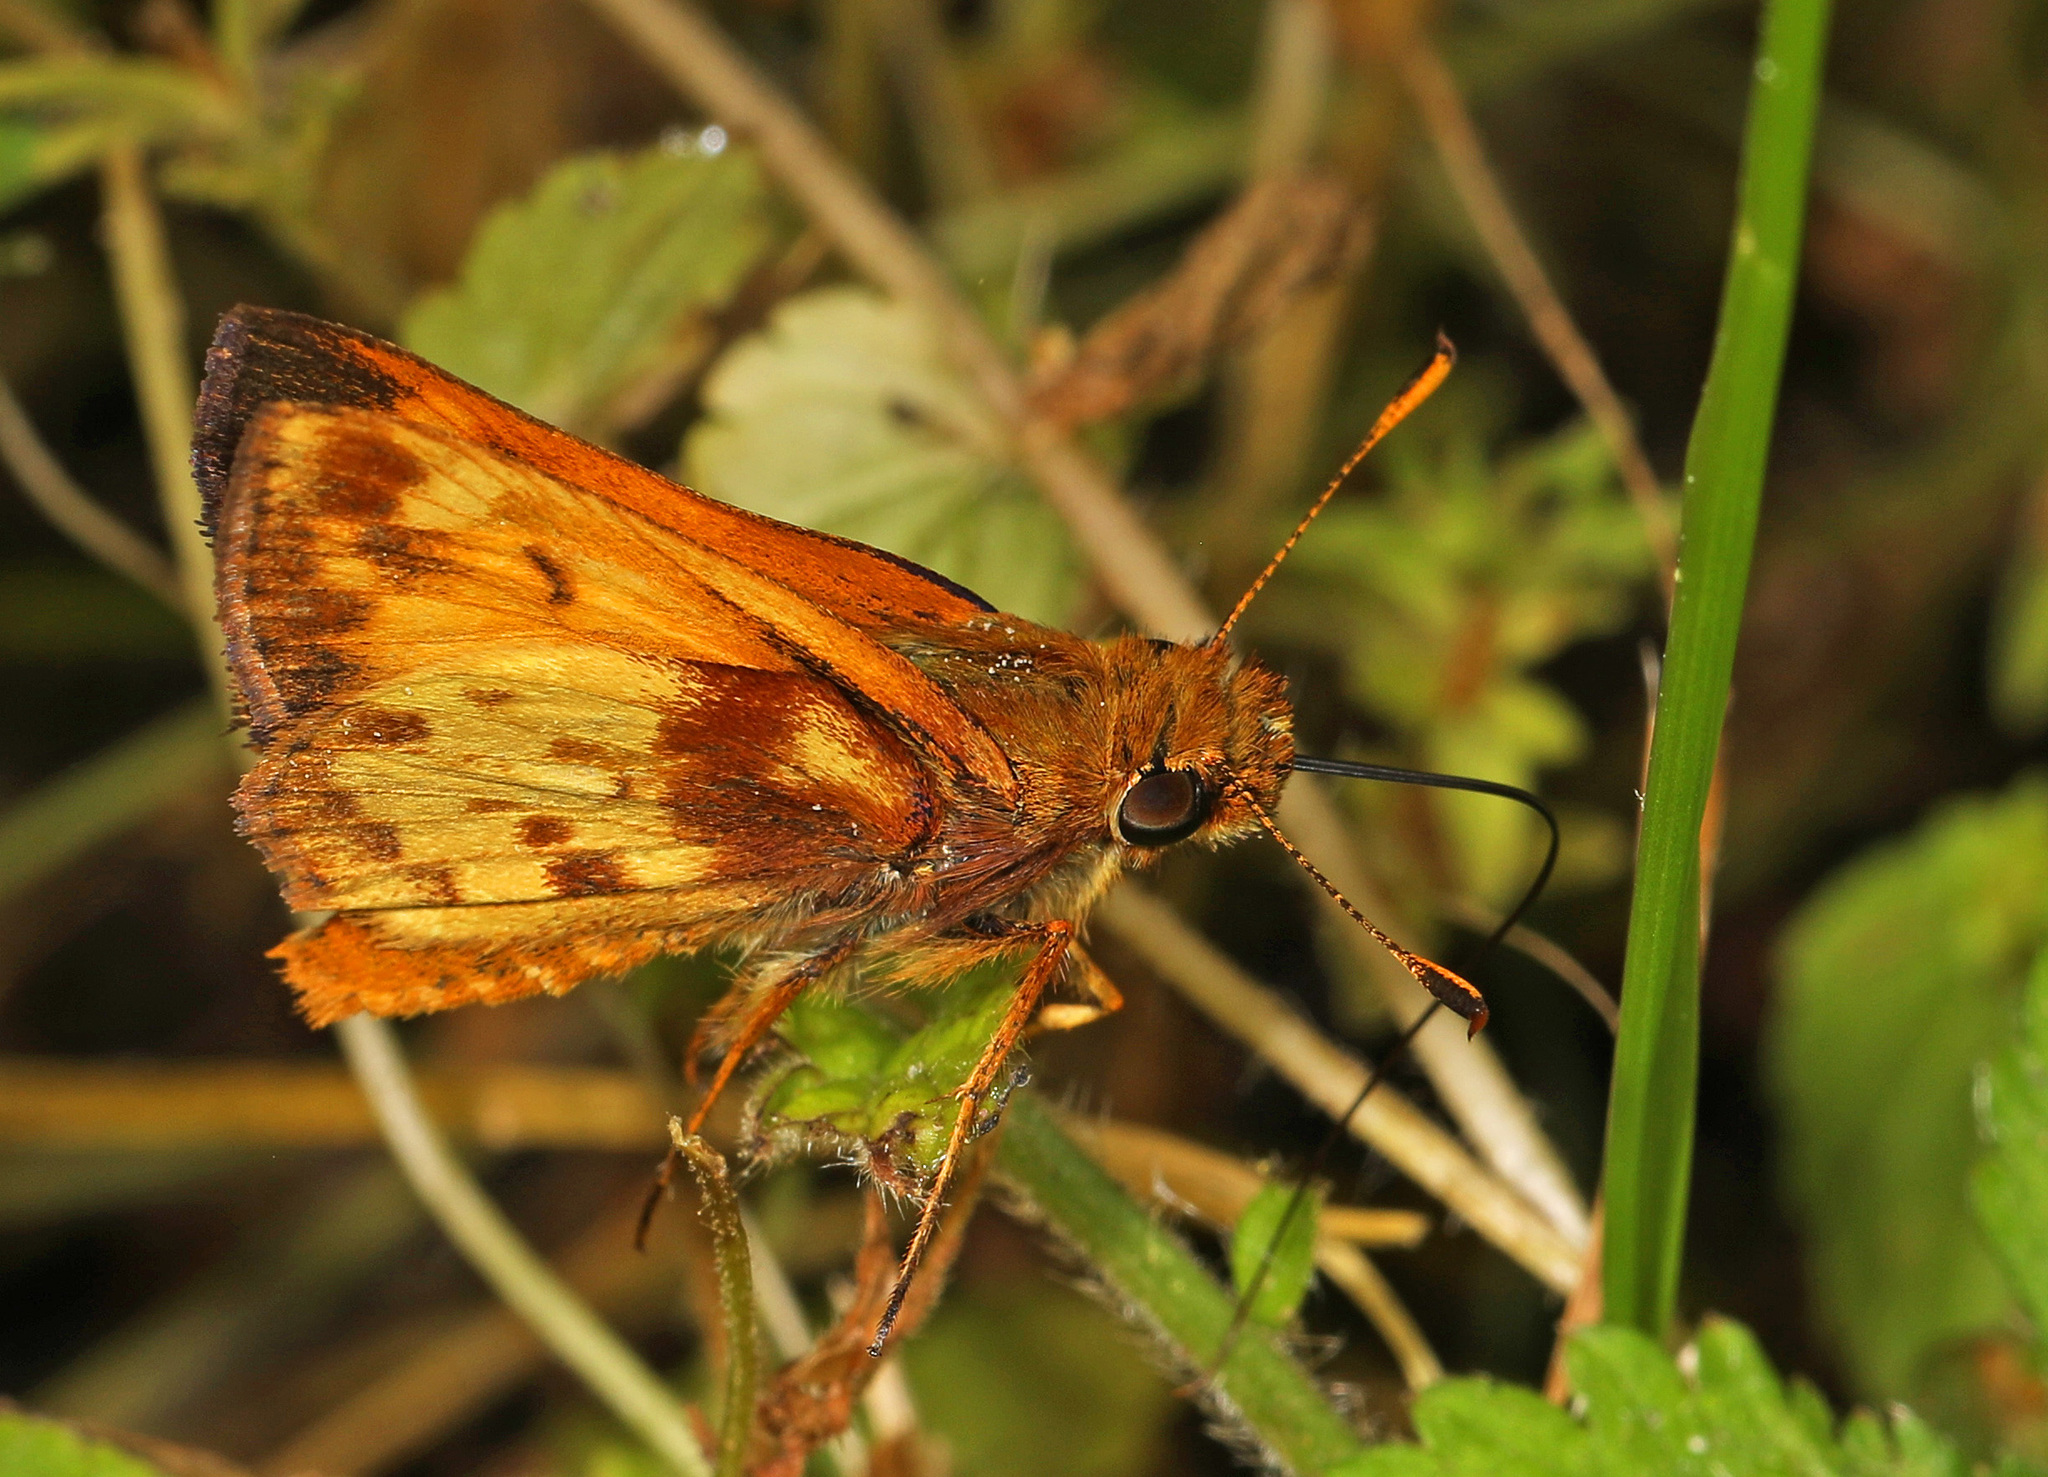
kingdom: Animalia
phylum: Arthropoda
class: Insecta
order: Lepidoptera
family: Hesperiidae
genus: Lon
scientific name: Lon zabulon
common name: Zabulon skipper
